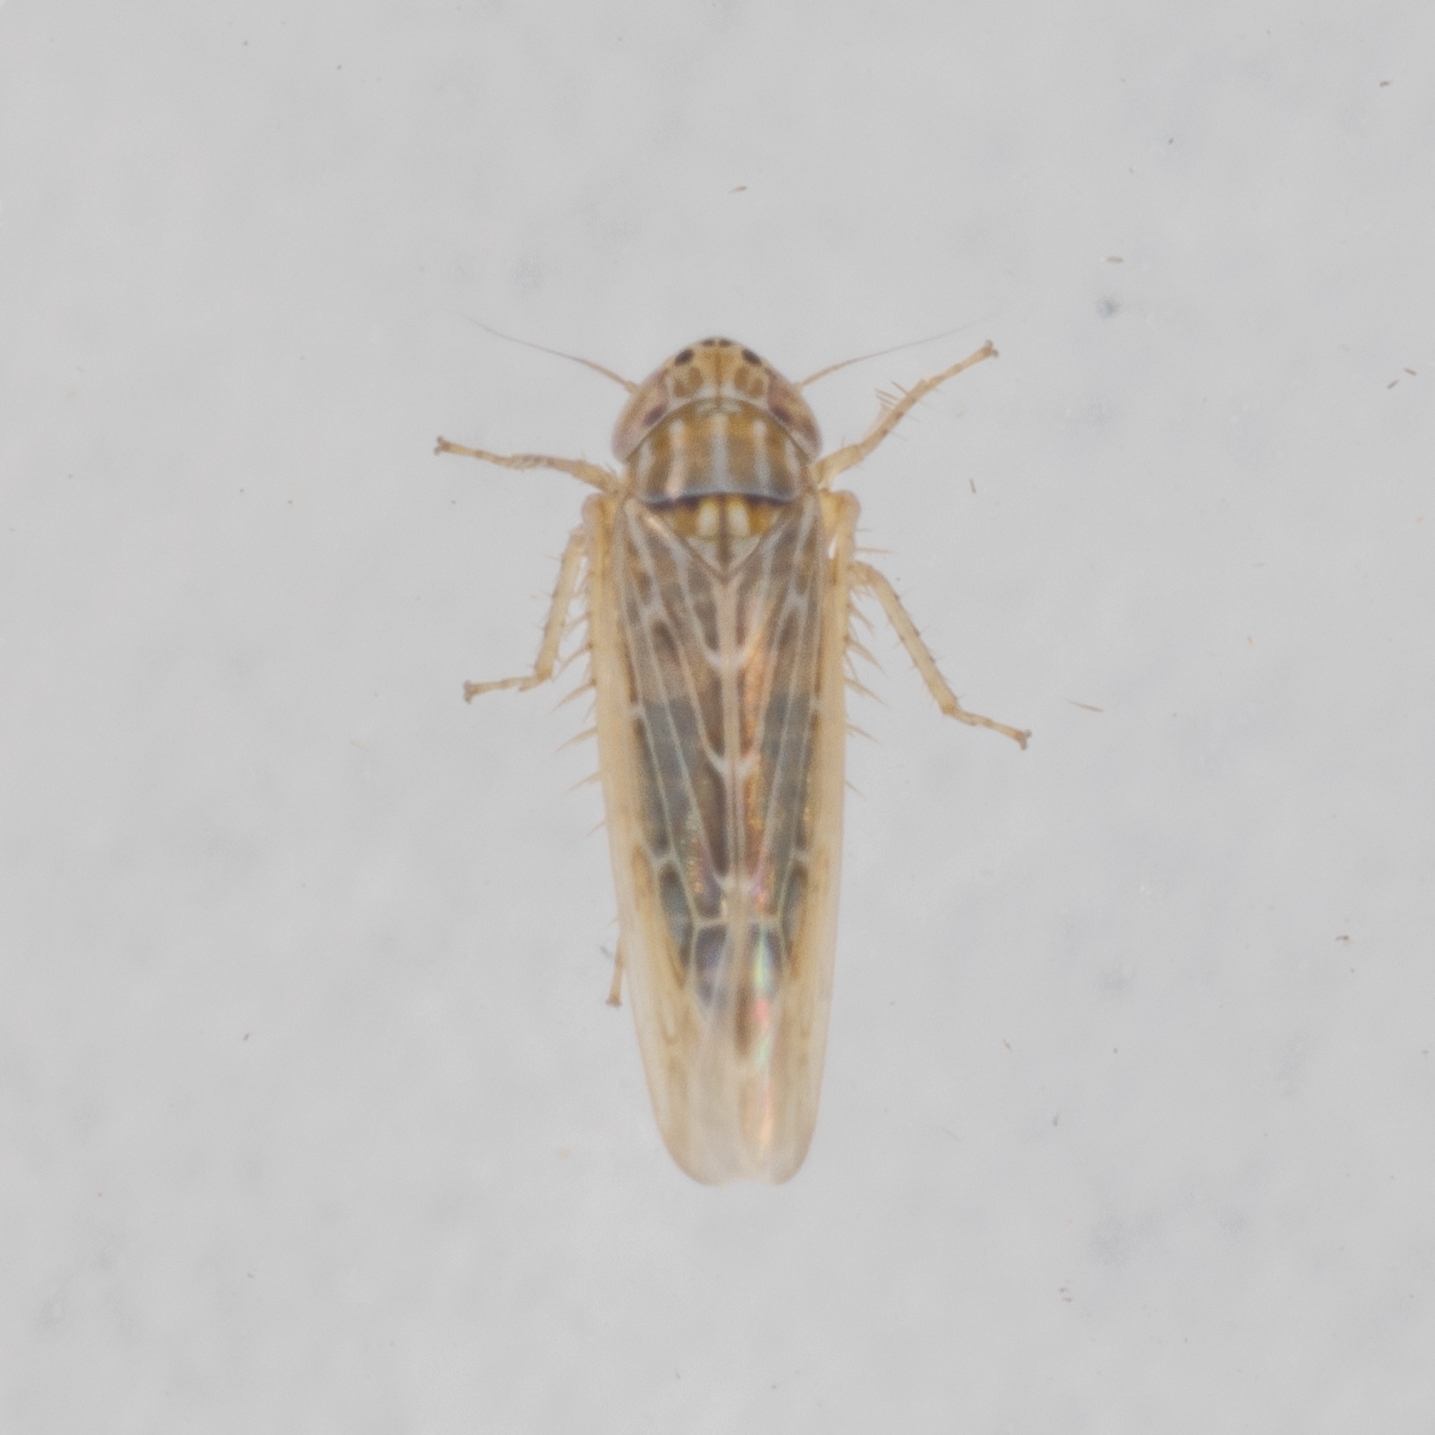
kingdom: Animalia
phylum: Arthropoda
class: Insecta
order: Hemiptera
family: Cicadellidae
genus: Graminella
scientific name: Graminella sonora
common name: Lesser lawn leafhopper
